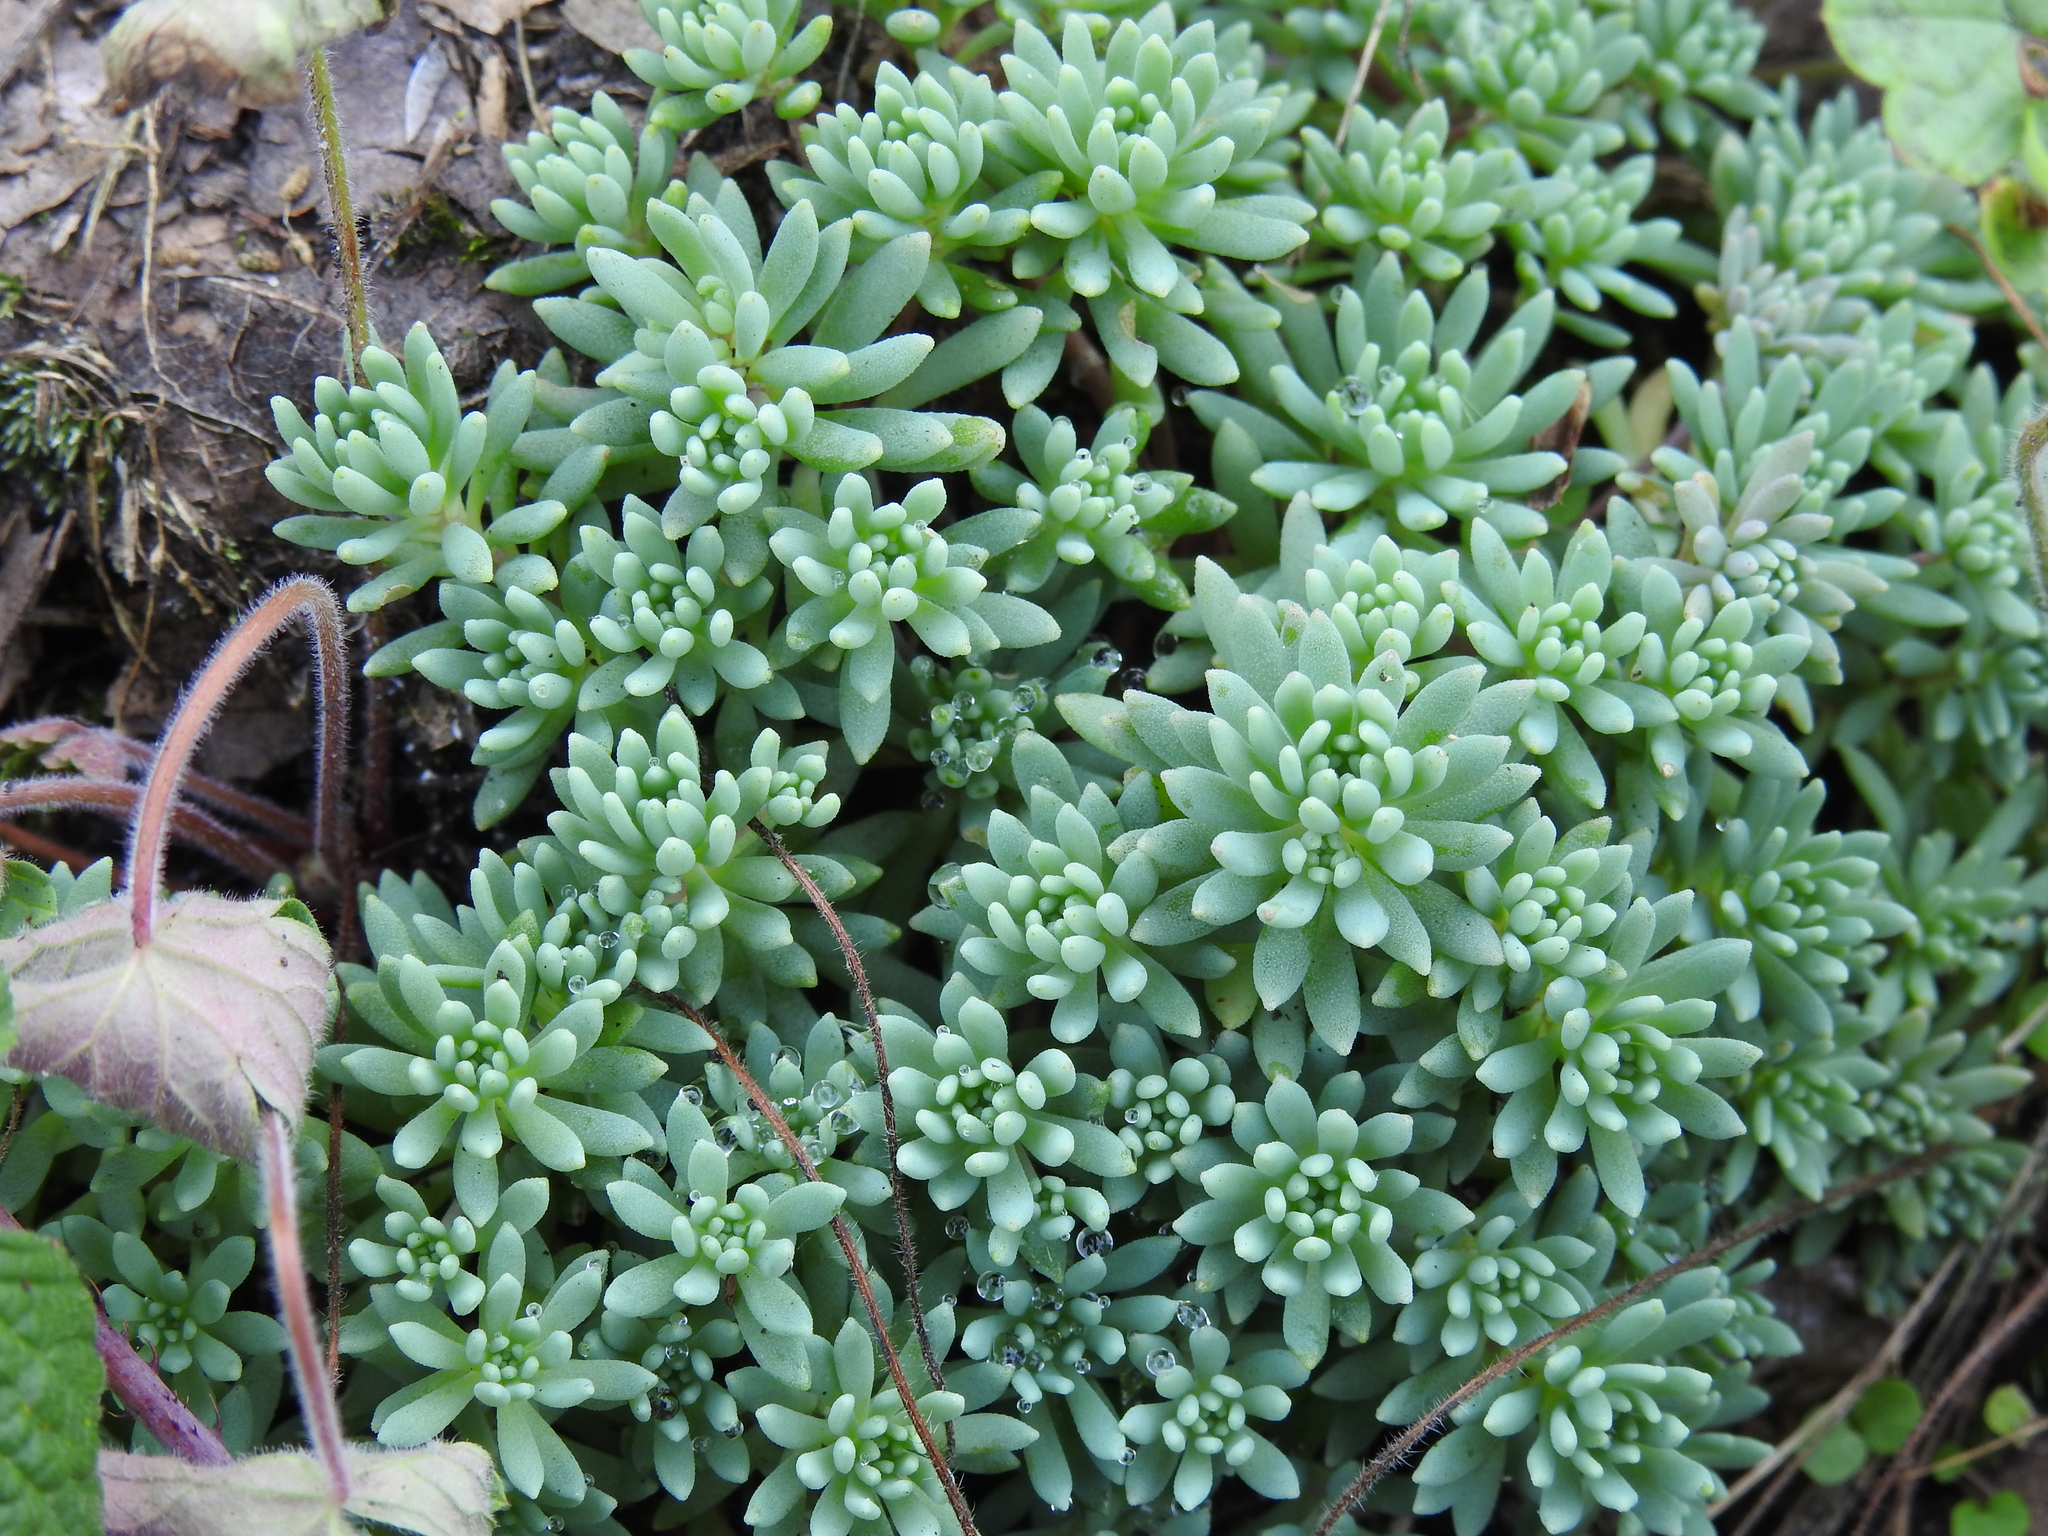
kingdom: Plantae
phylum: Tracheophyta
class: Magnoliopsida
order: Saxifragales
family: Crassulaceae
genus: Sedum
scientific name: Sedum hispanicum
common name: Spanish stonecrop
